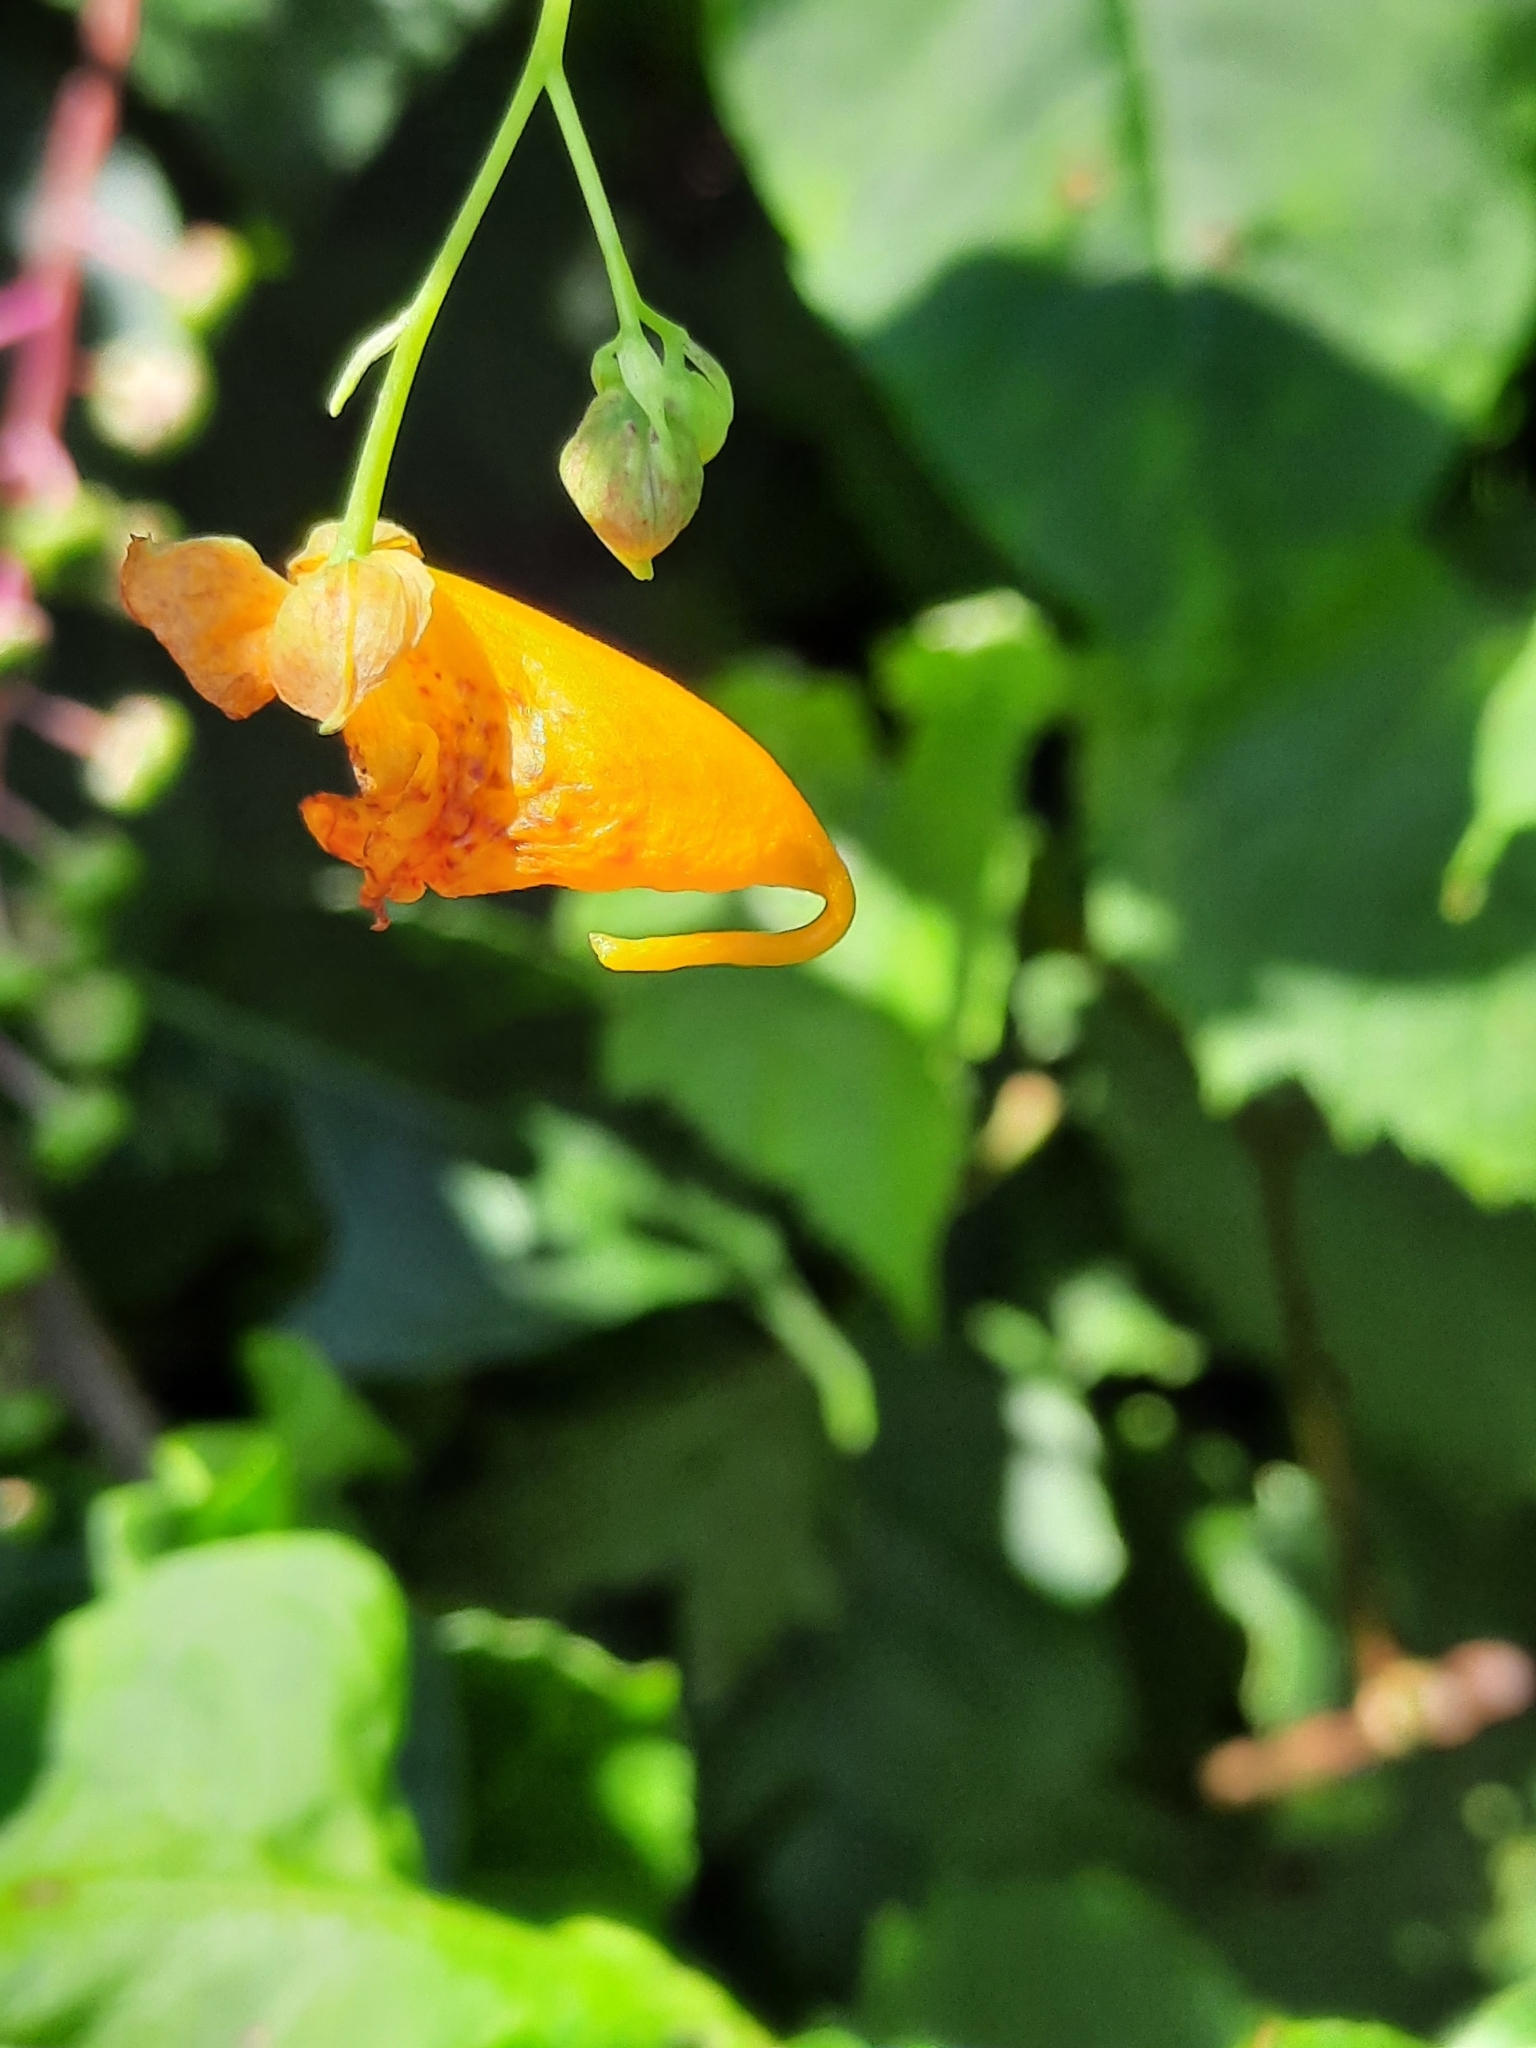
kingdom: Plantae
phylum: Tracheophyta
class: Magnoliopsida
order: Ericales
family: Balsaminaceae
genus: Impatiens
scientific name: Impatiens capensis
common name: Orange balsam
